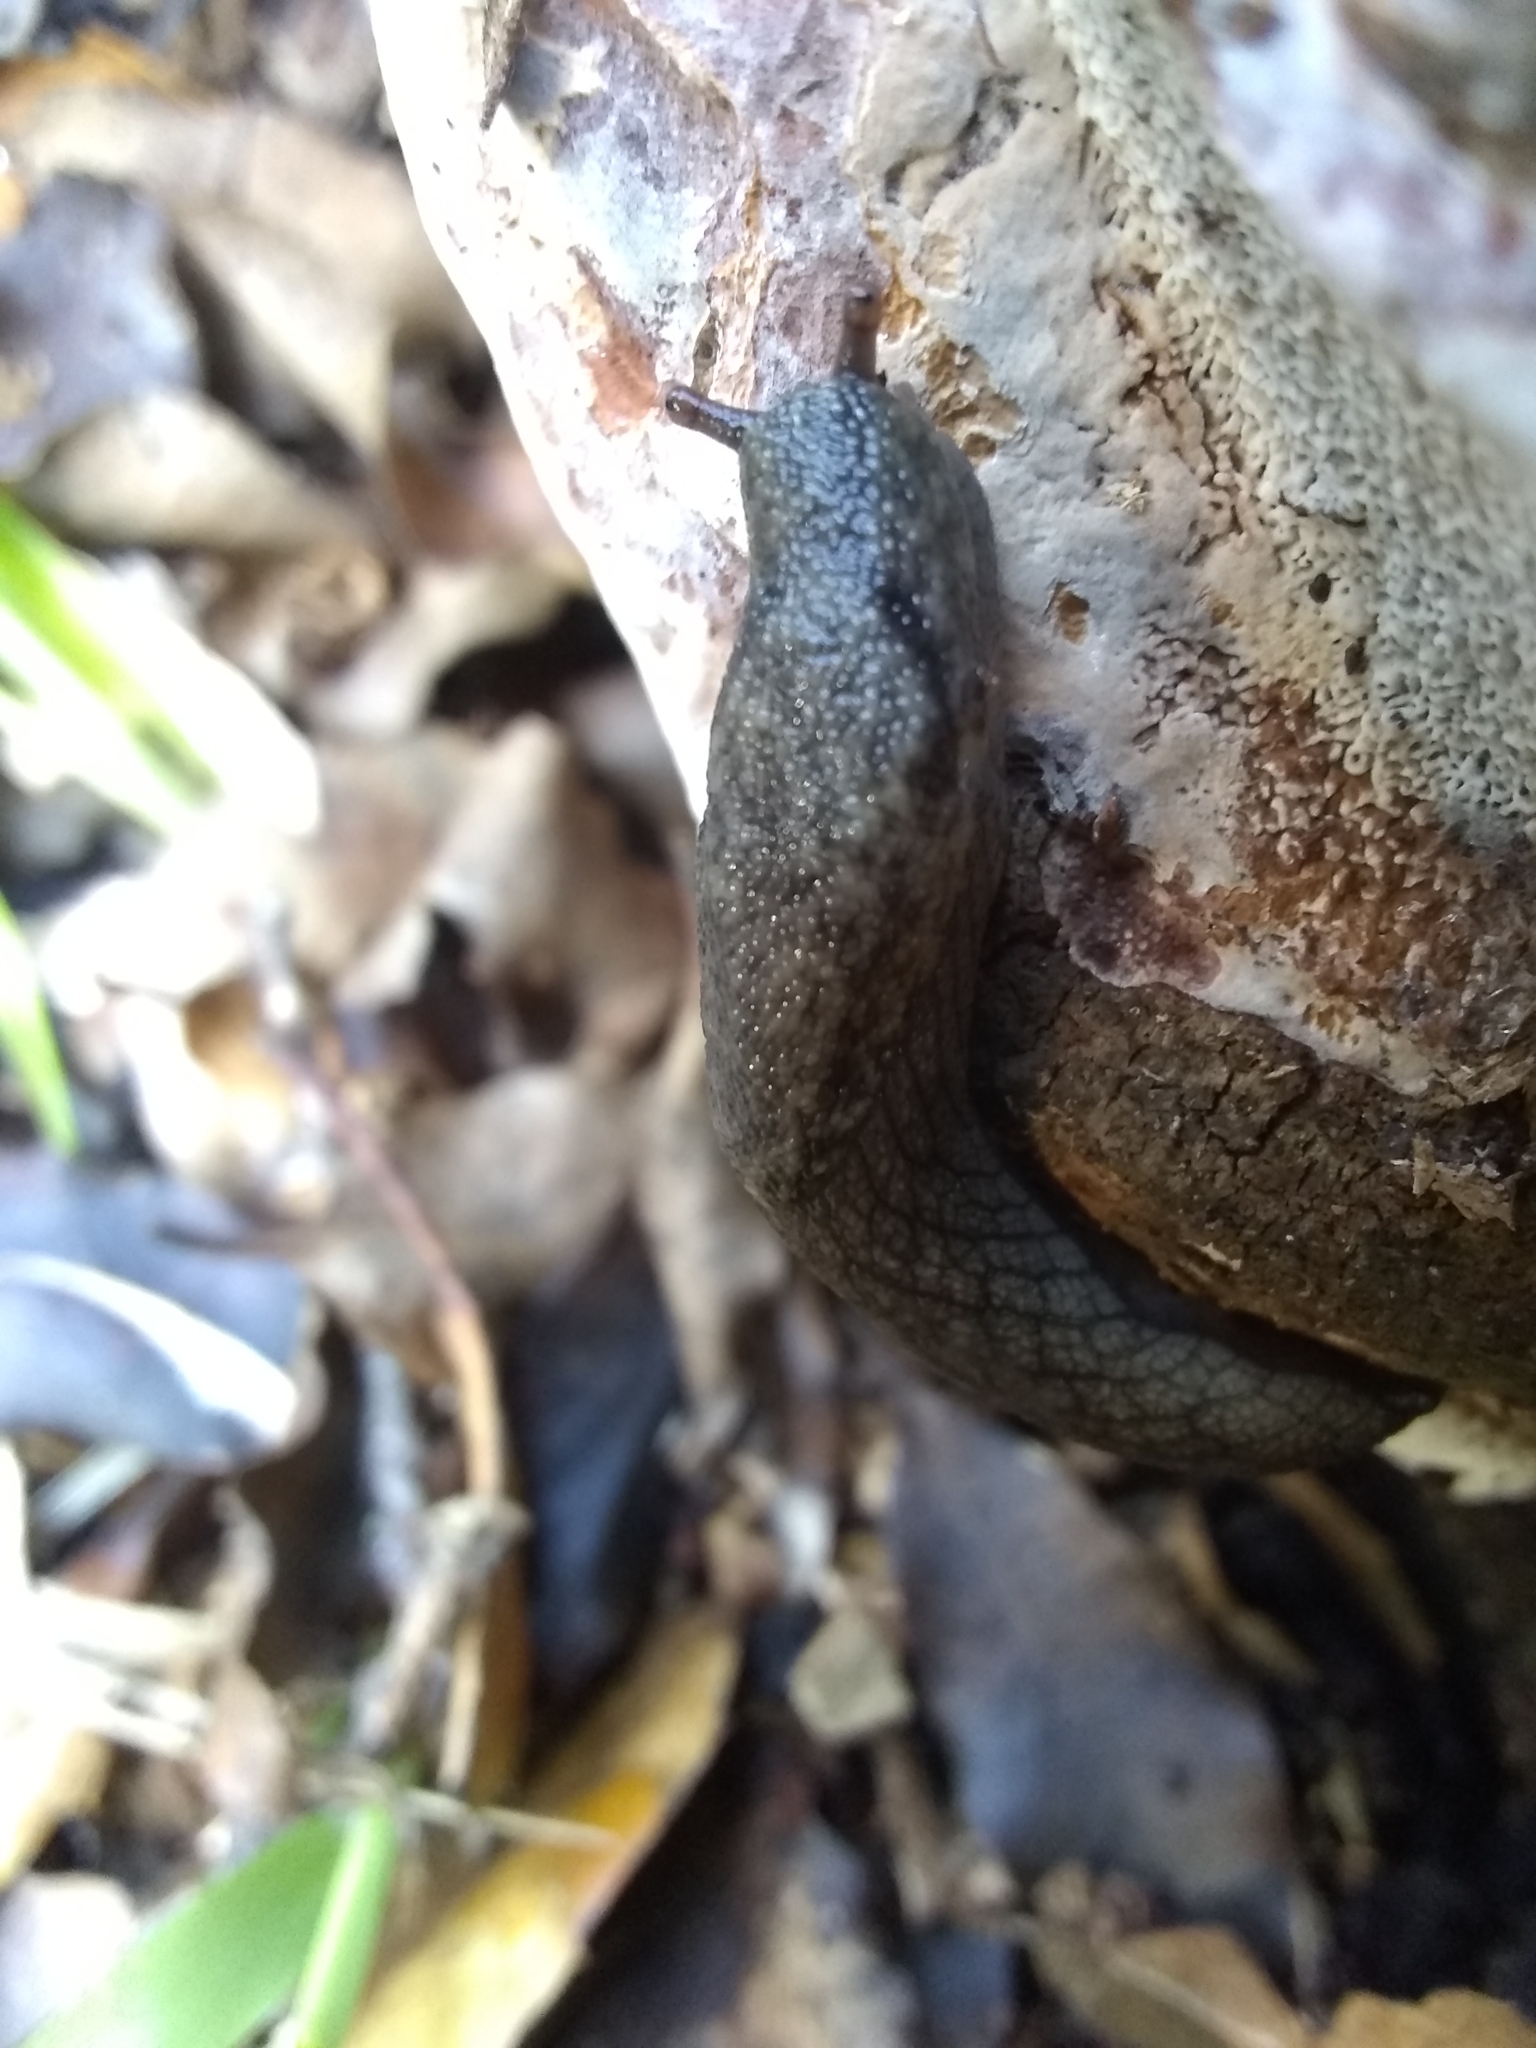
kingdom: Animalia
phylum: Mollusca
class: Gastropoda
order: Stylommatophora
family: Ariolimacidae
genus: Prophysaon
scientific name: Prophysaon andersonii
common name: Reticulate taildropper
